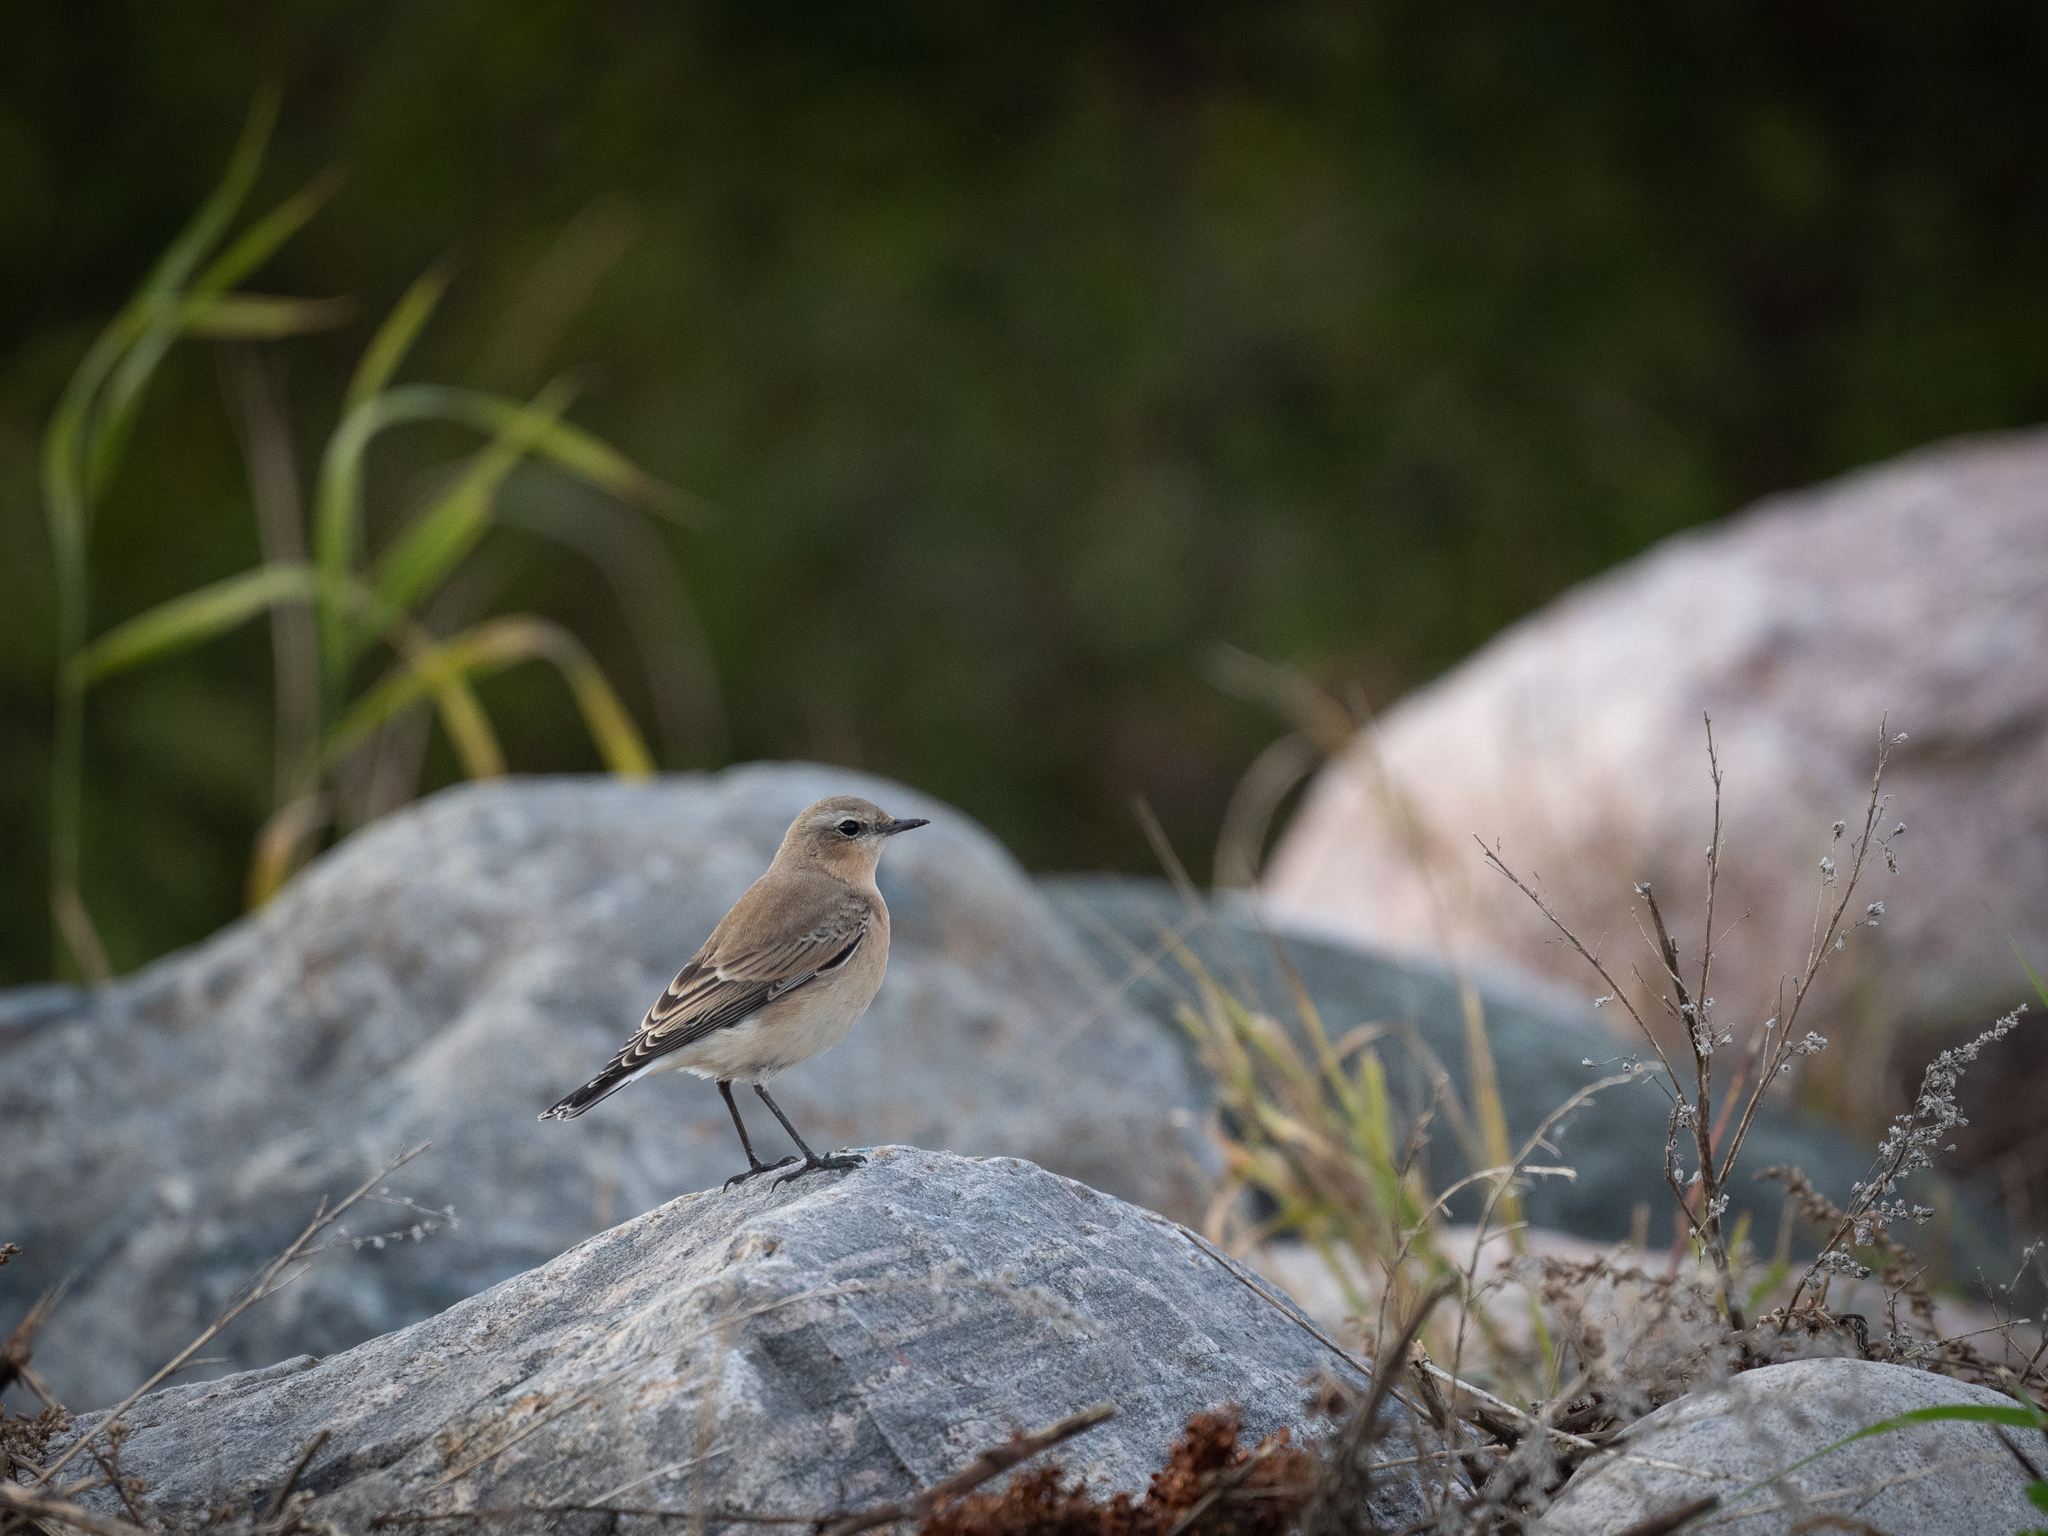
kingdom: Animalia
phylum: Chordata
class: Aves
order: Passeriformes
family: Muscicapidae
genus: Oenanthe
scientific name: Oenanthe oenanthe
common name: Northern wheatear
